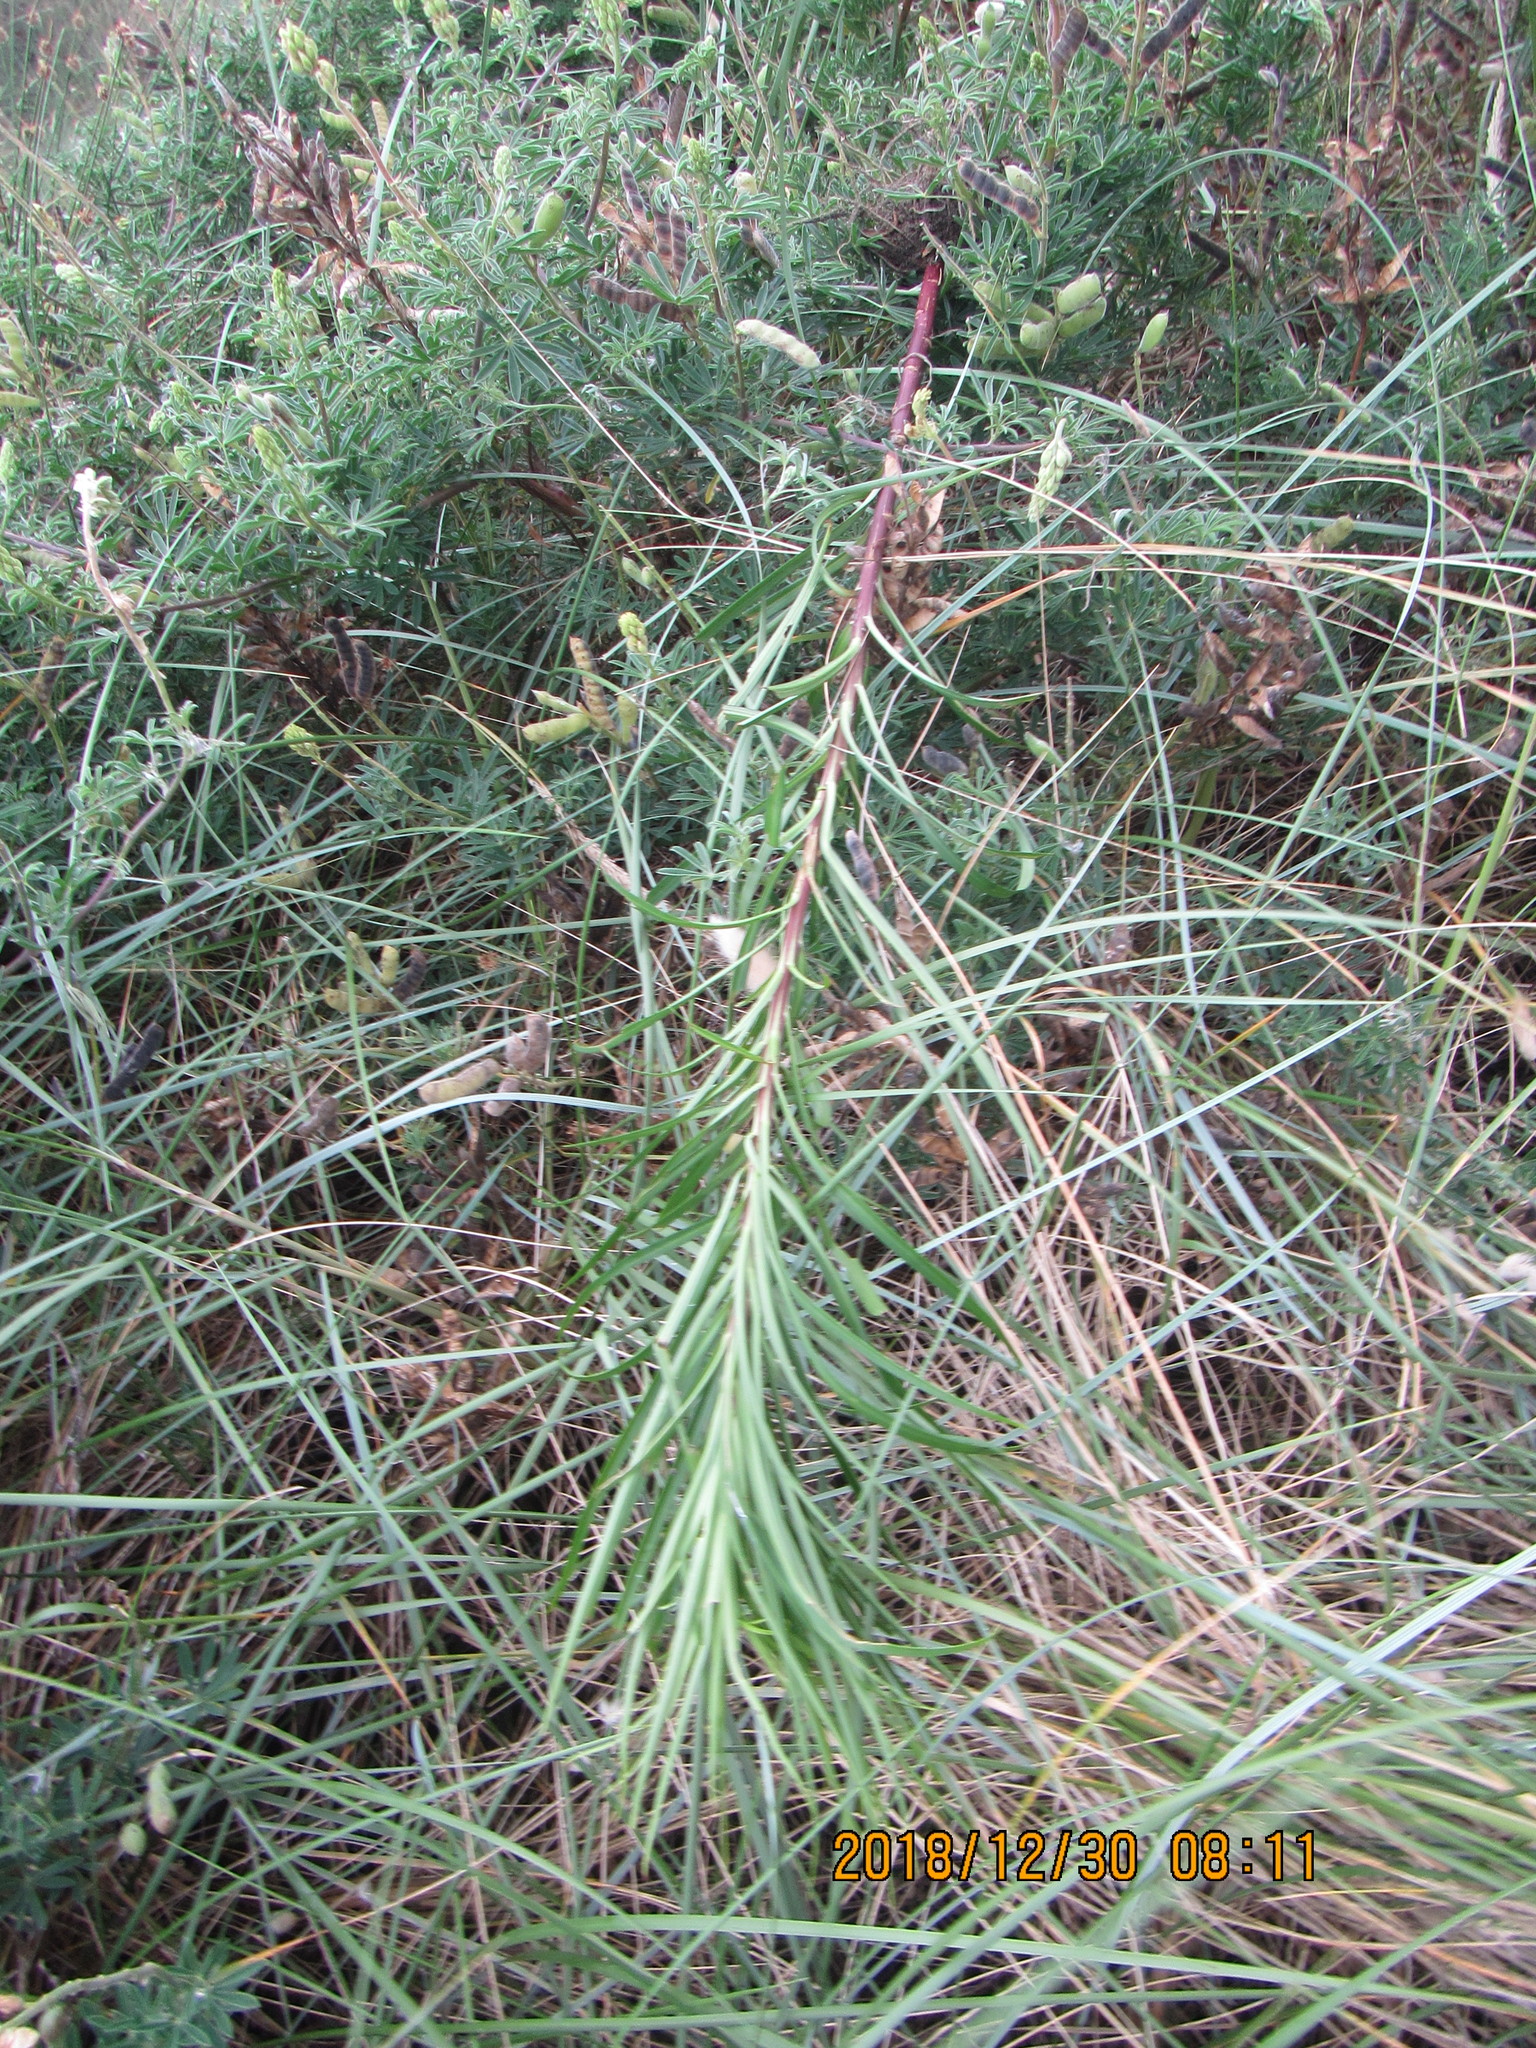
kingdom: Plantae
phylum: Tracheophyta
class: Liliopsida
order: Liliales
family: Liliaceae
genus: Lilium
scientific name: Lilium formosanum
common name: Formosa lily
